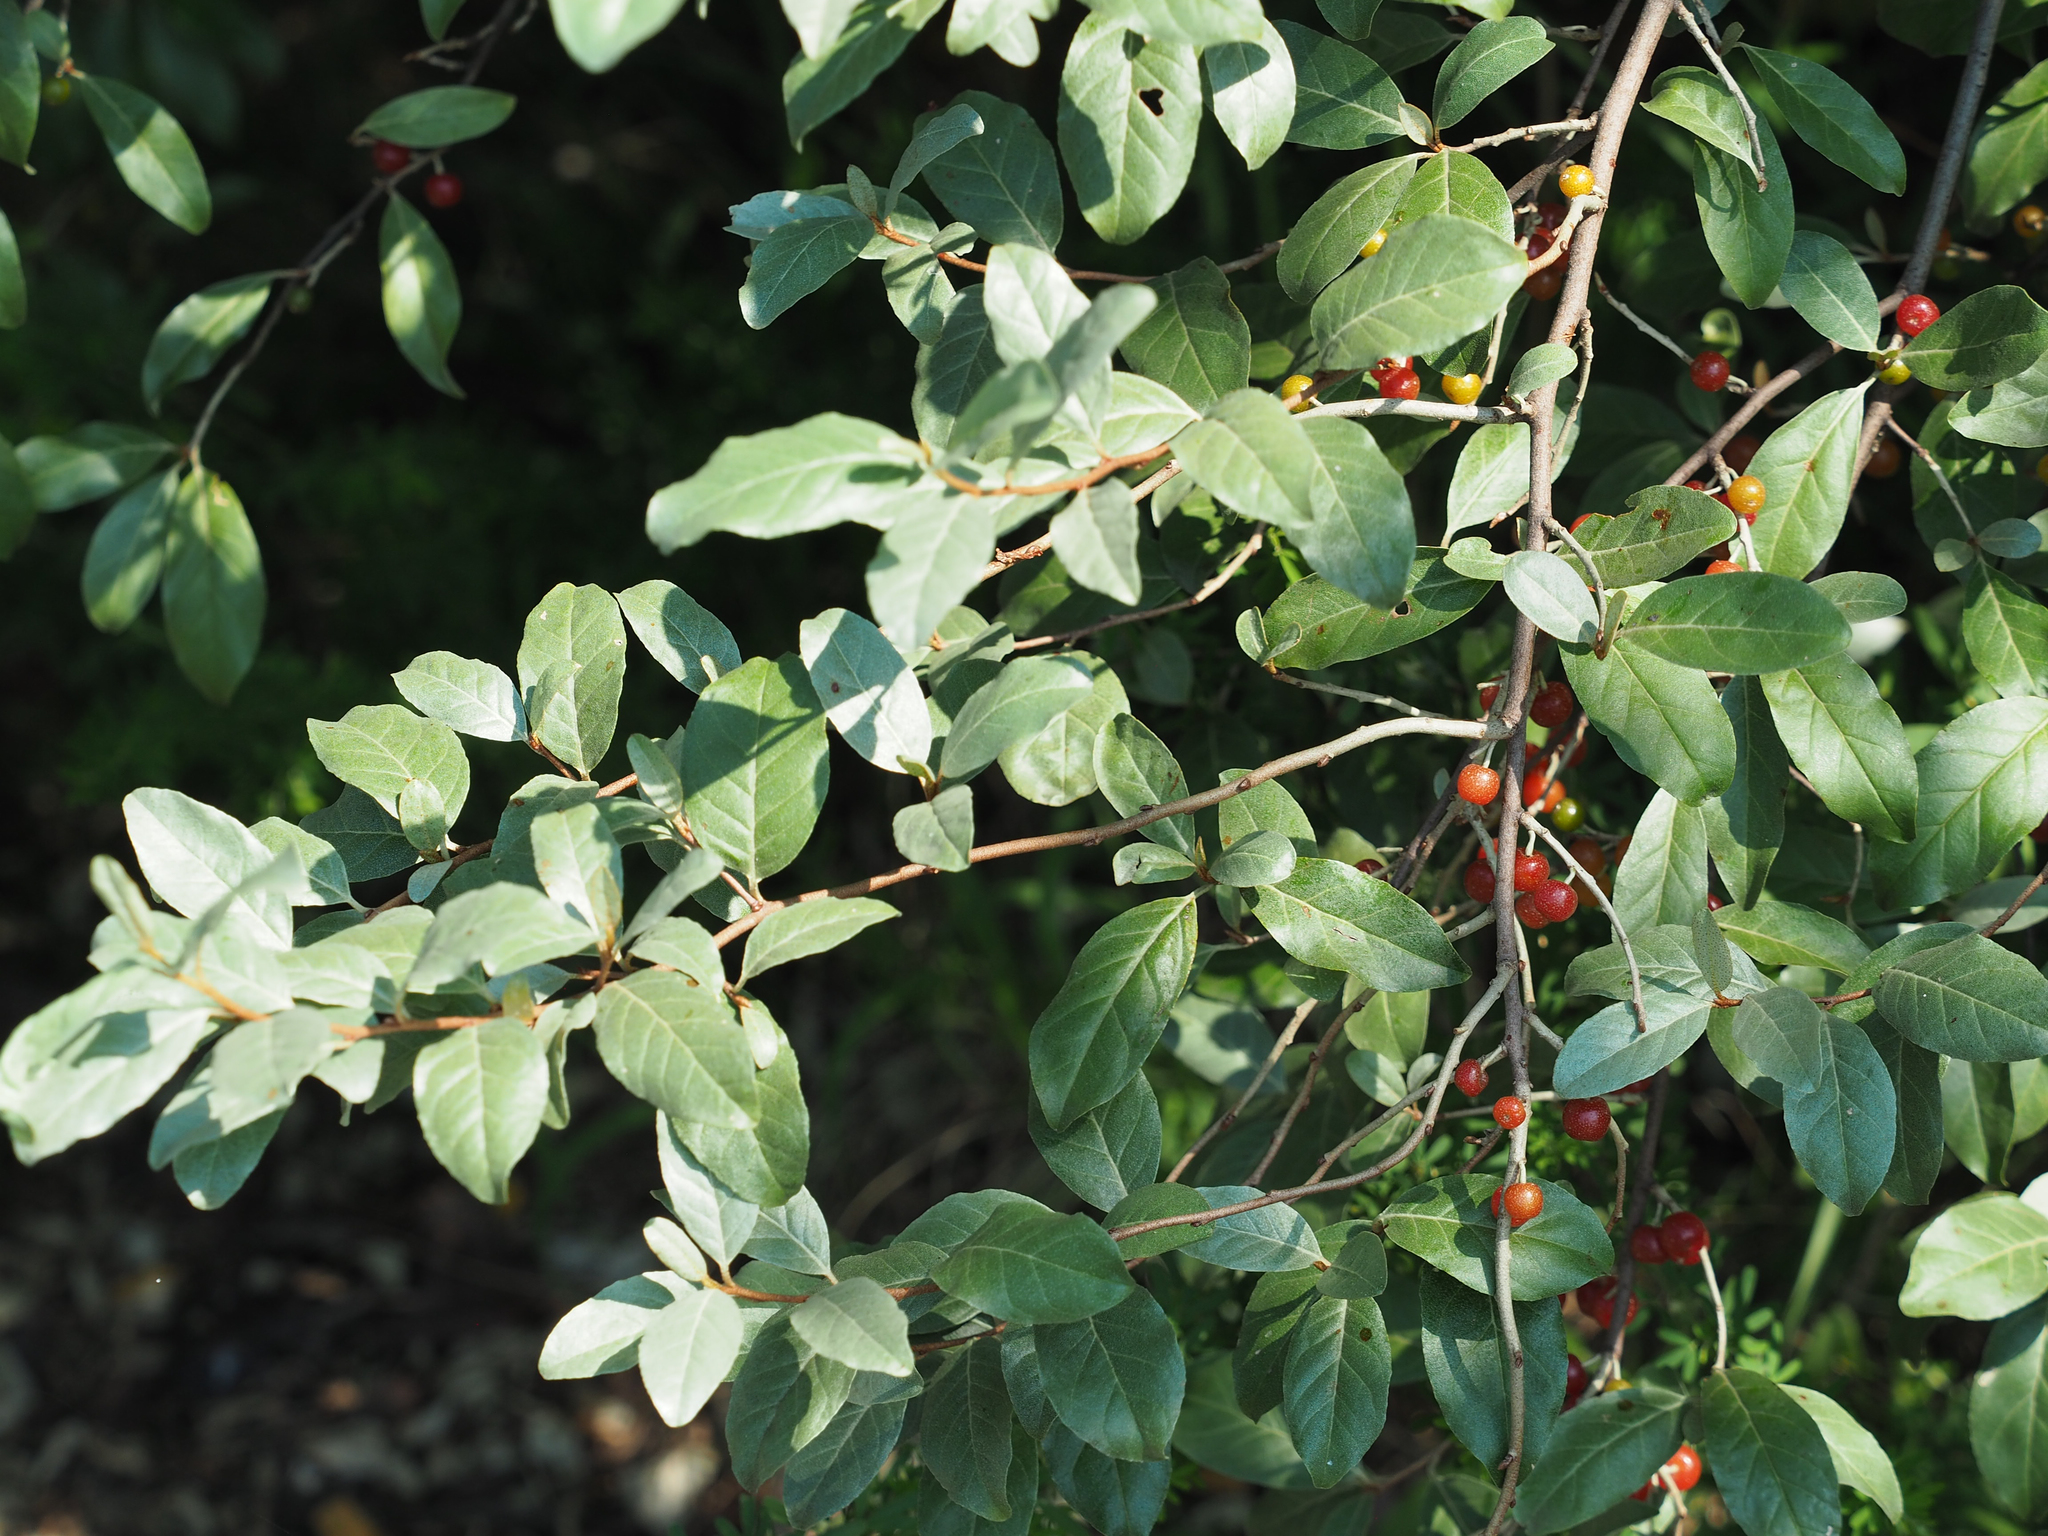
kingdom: Plantae
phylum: Tracheophyta
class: Magnoliopsida
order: Rosales
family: Elaeagnaceae
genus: Elaeagnus
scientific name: Elaeagnus umbellata
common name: Autumn olive
